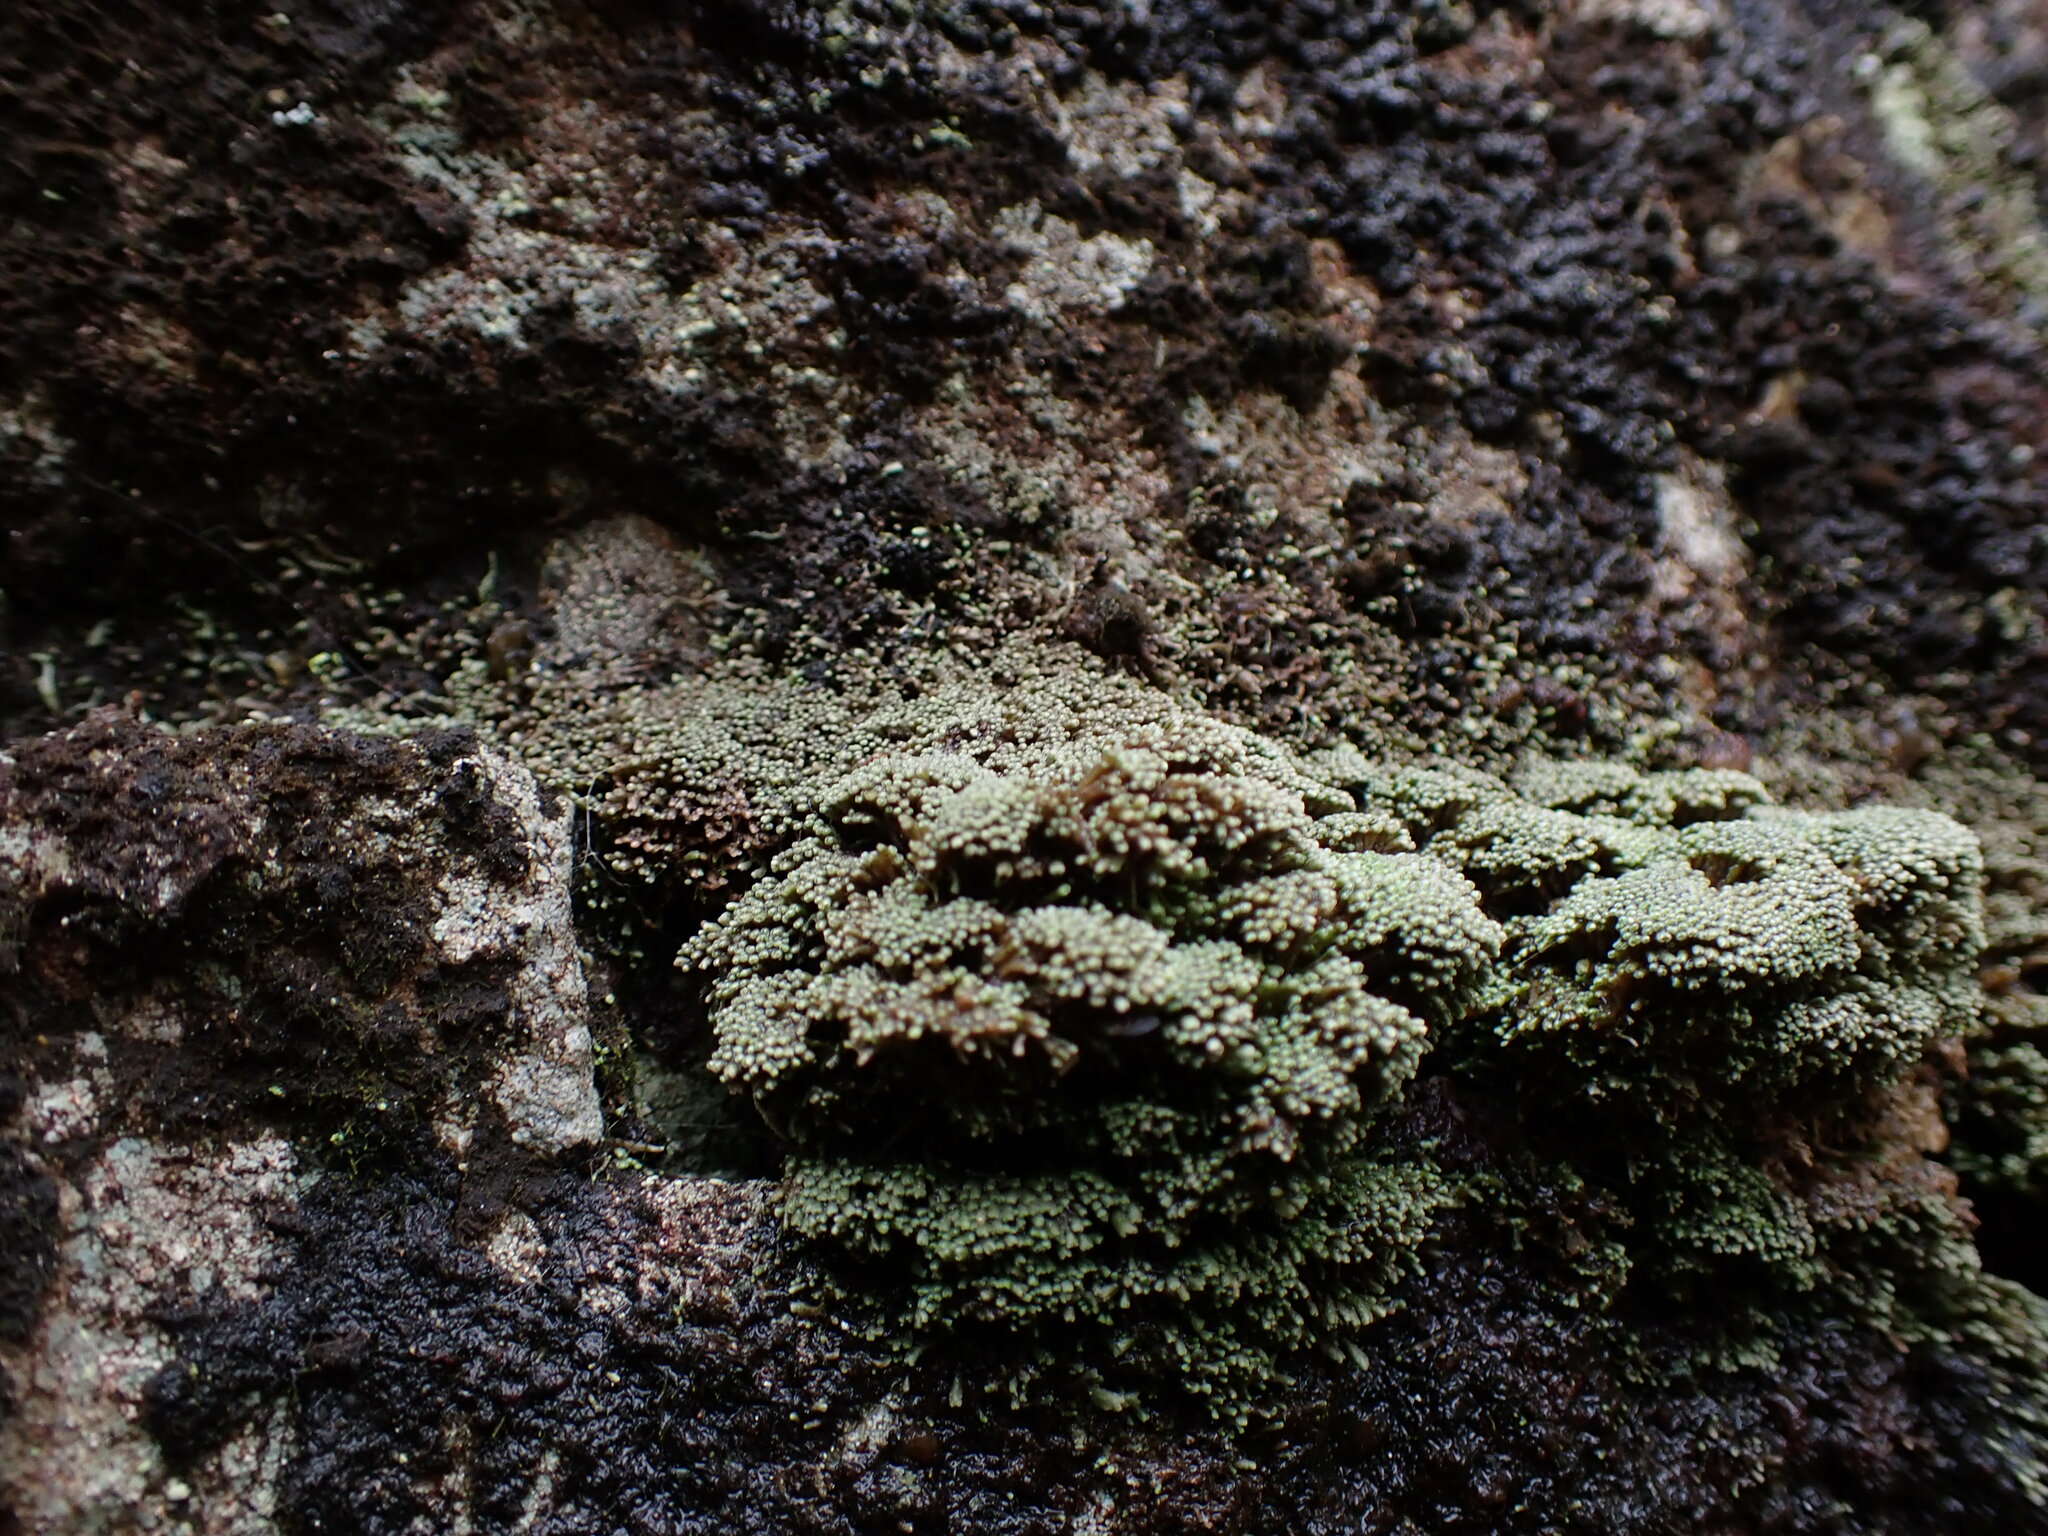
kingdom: Plantae
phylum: Marchantiophyta
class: Jungermanniopsida
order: Jungermanniales
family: Gymnomitriaceae
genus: Gymnomitrion
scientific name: Gymnomitrion obtusum
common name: White frostwort
